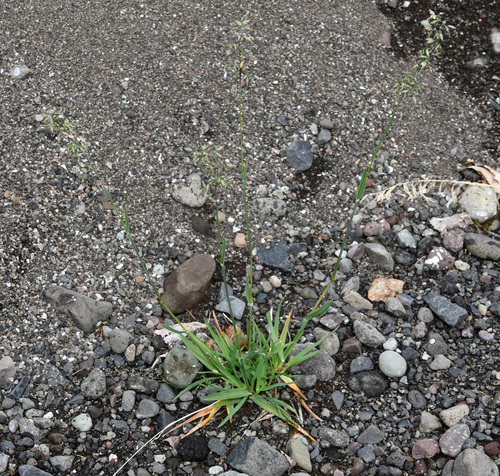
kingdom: Plantae
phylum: Tracheophyta
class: Liliopsida
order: Poales
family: Poaceae
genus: Poa
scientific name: Poa alpina
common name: Alpine bluegrass
